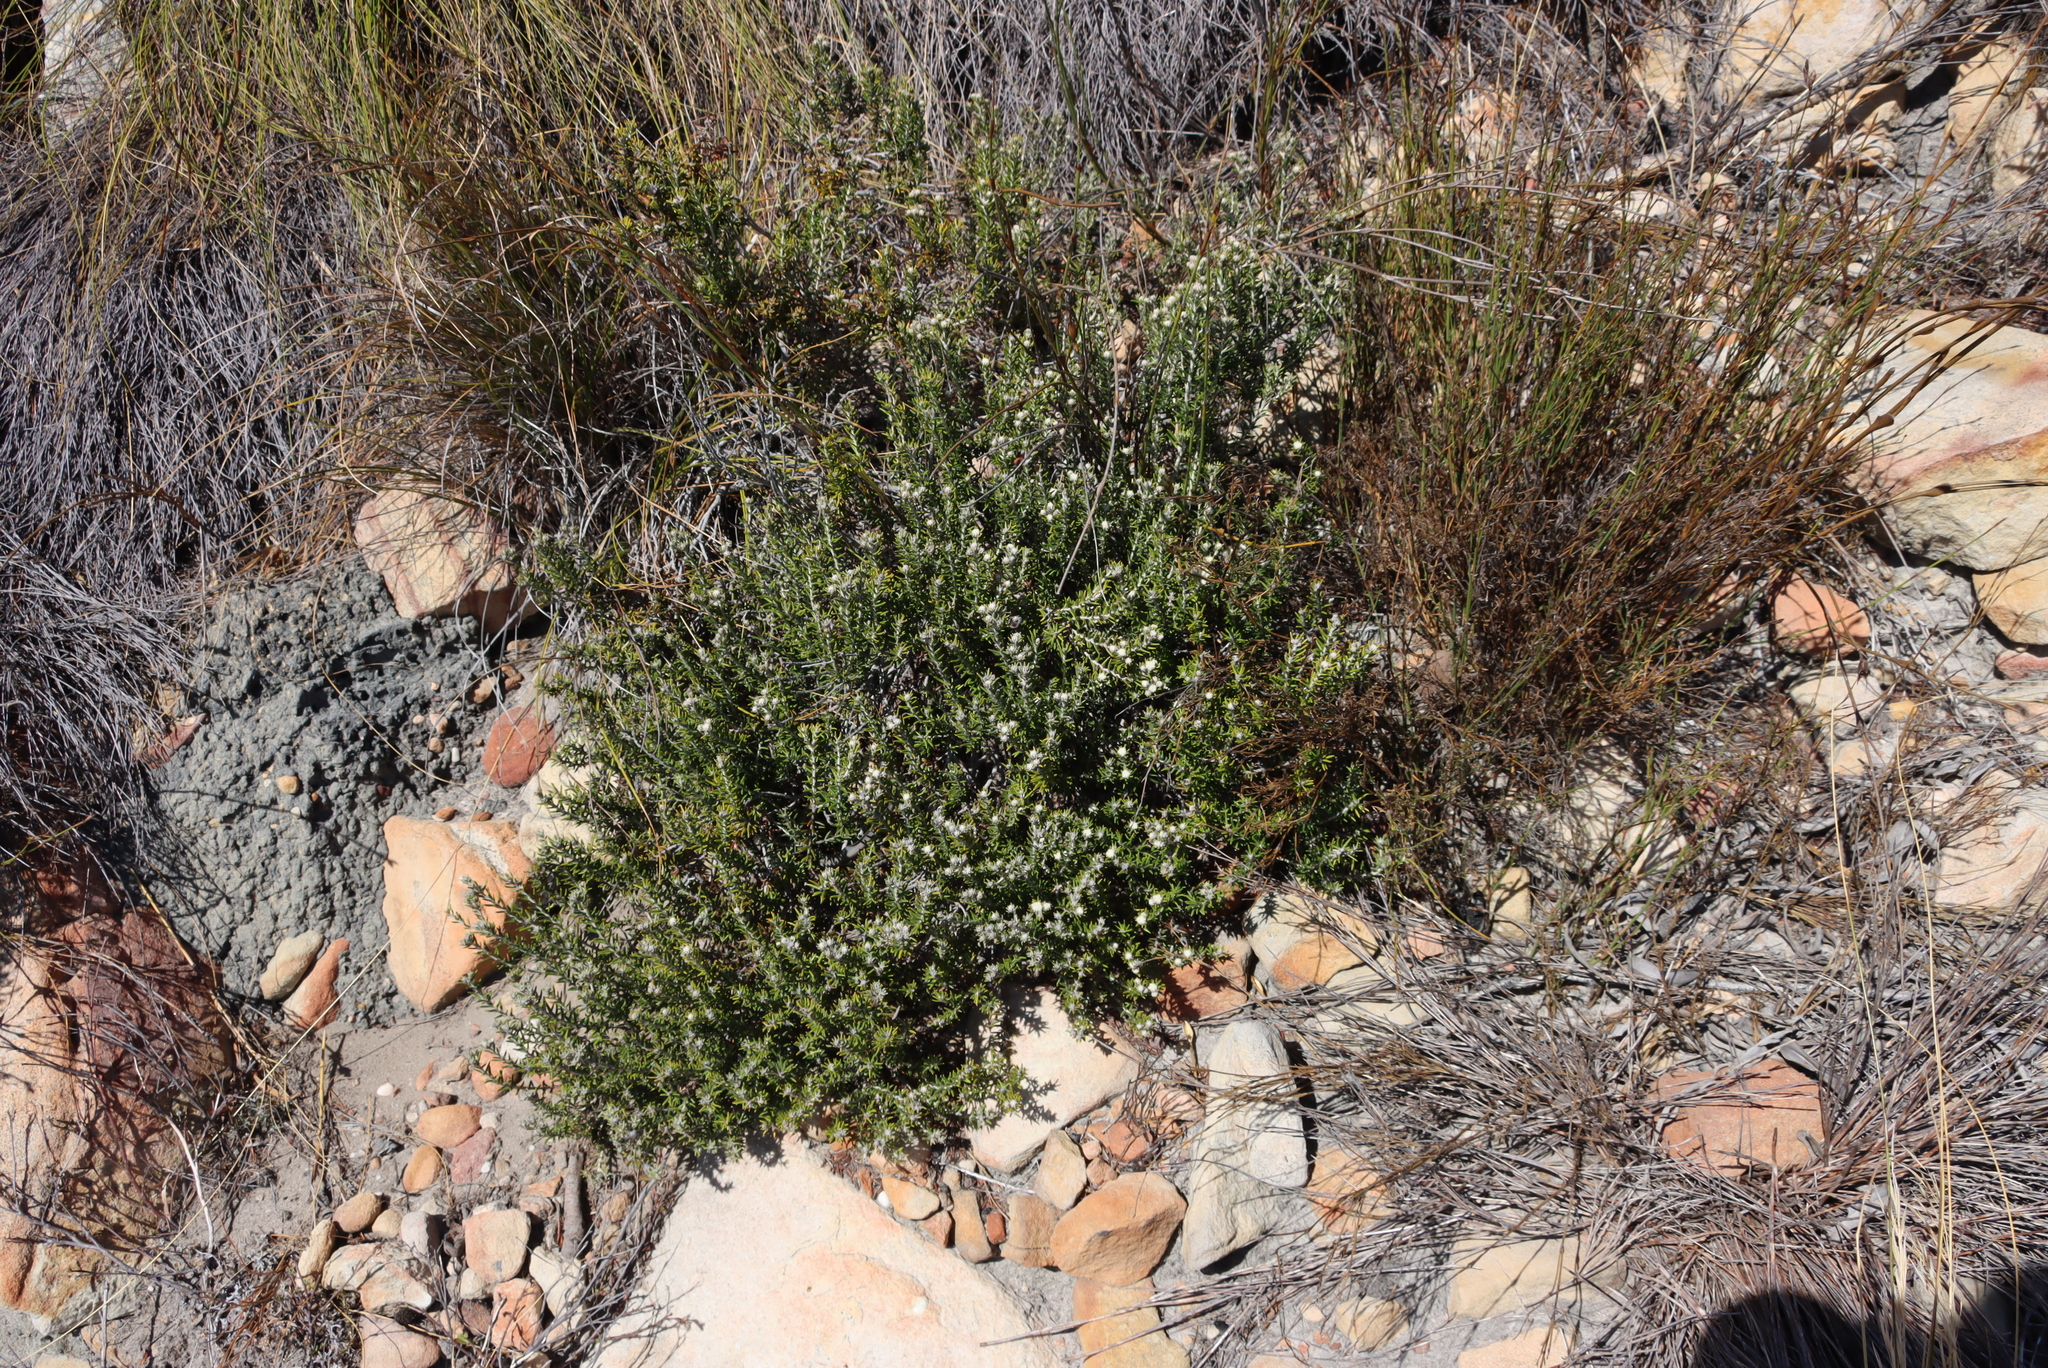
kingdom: Plantae
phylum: Tracheophyta
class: Magnoliopsida
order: Rosales
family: Rhamnaceae
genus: Trichocephalus
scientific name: Trichocephalus stipularis
